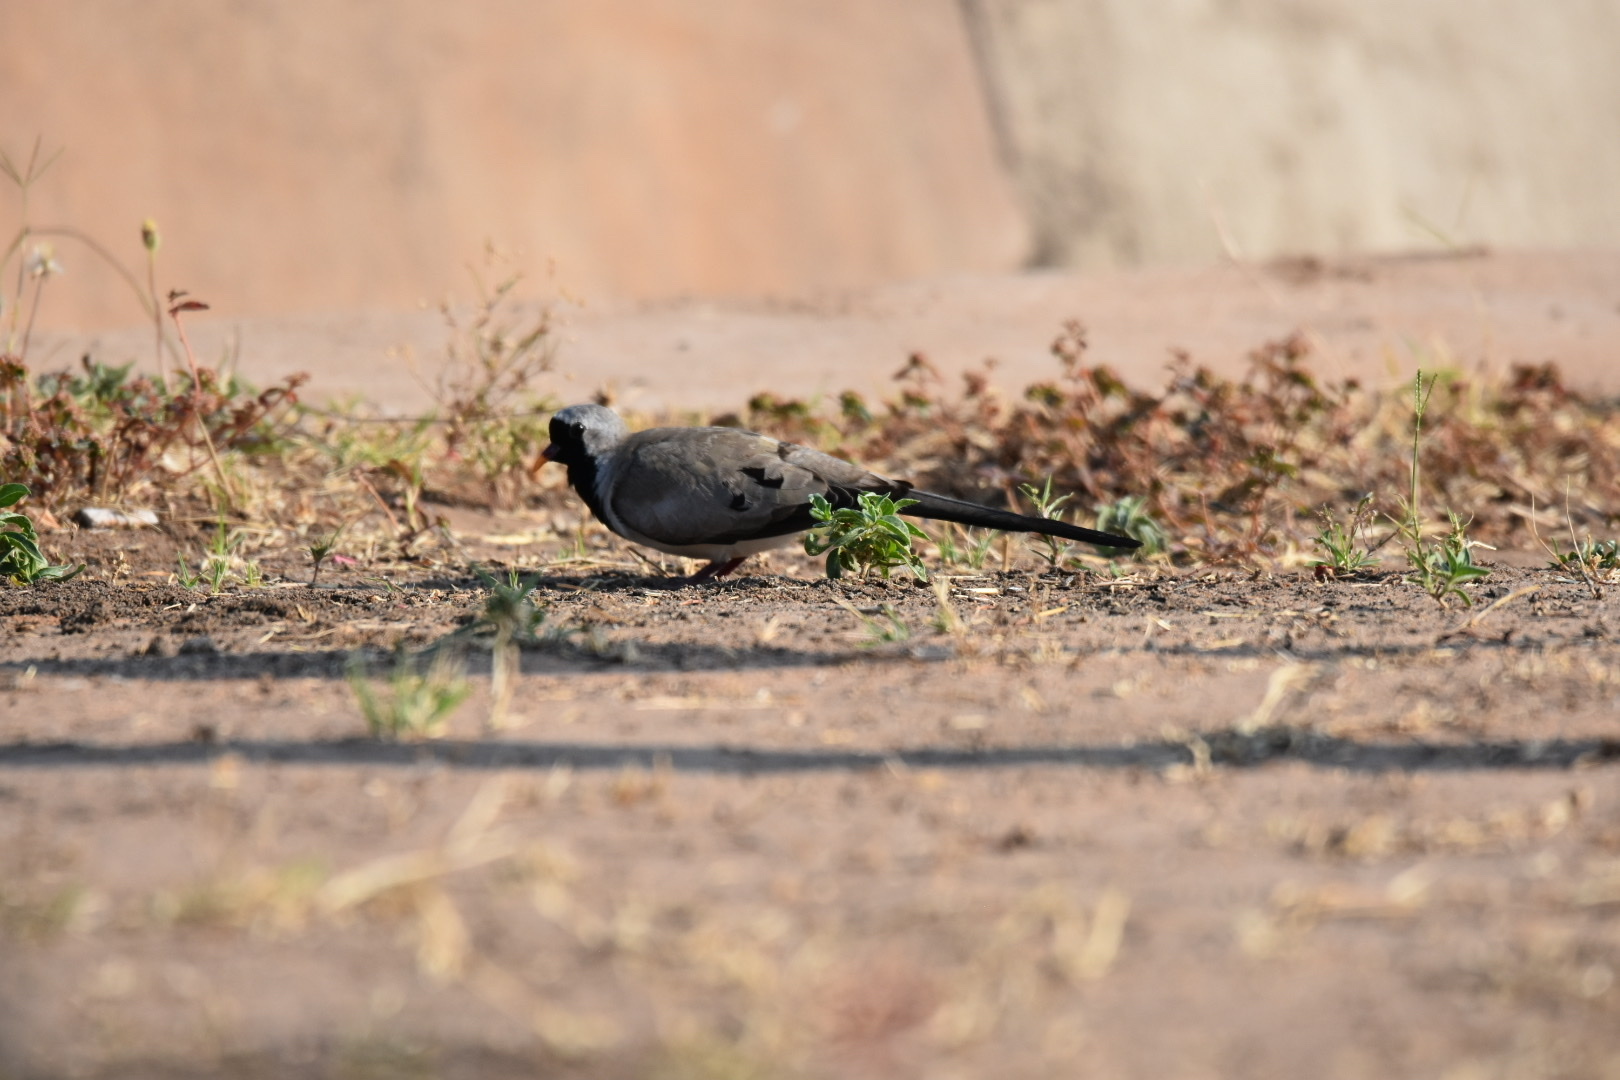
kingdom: Animalia
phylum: Chordata
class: Aves
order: Columbiformes
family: Columbidae
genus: Oena
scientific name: Oena capensis
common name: Namaqua dove
